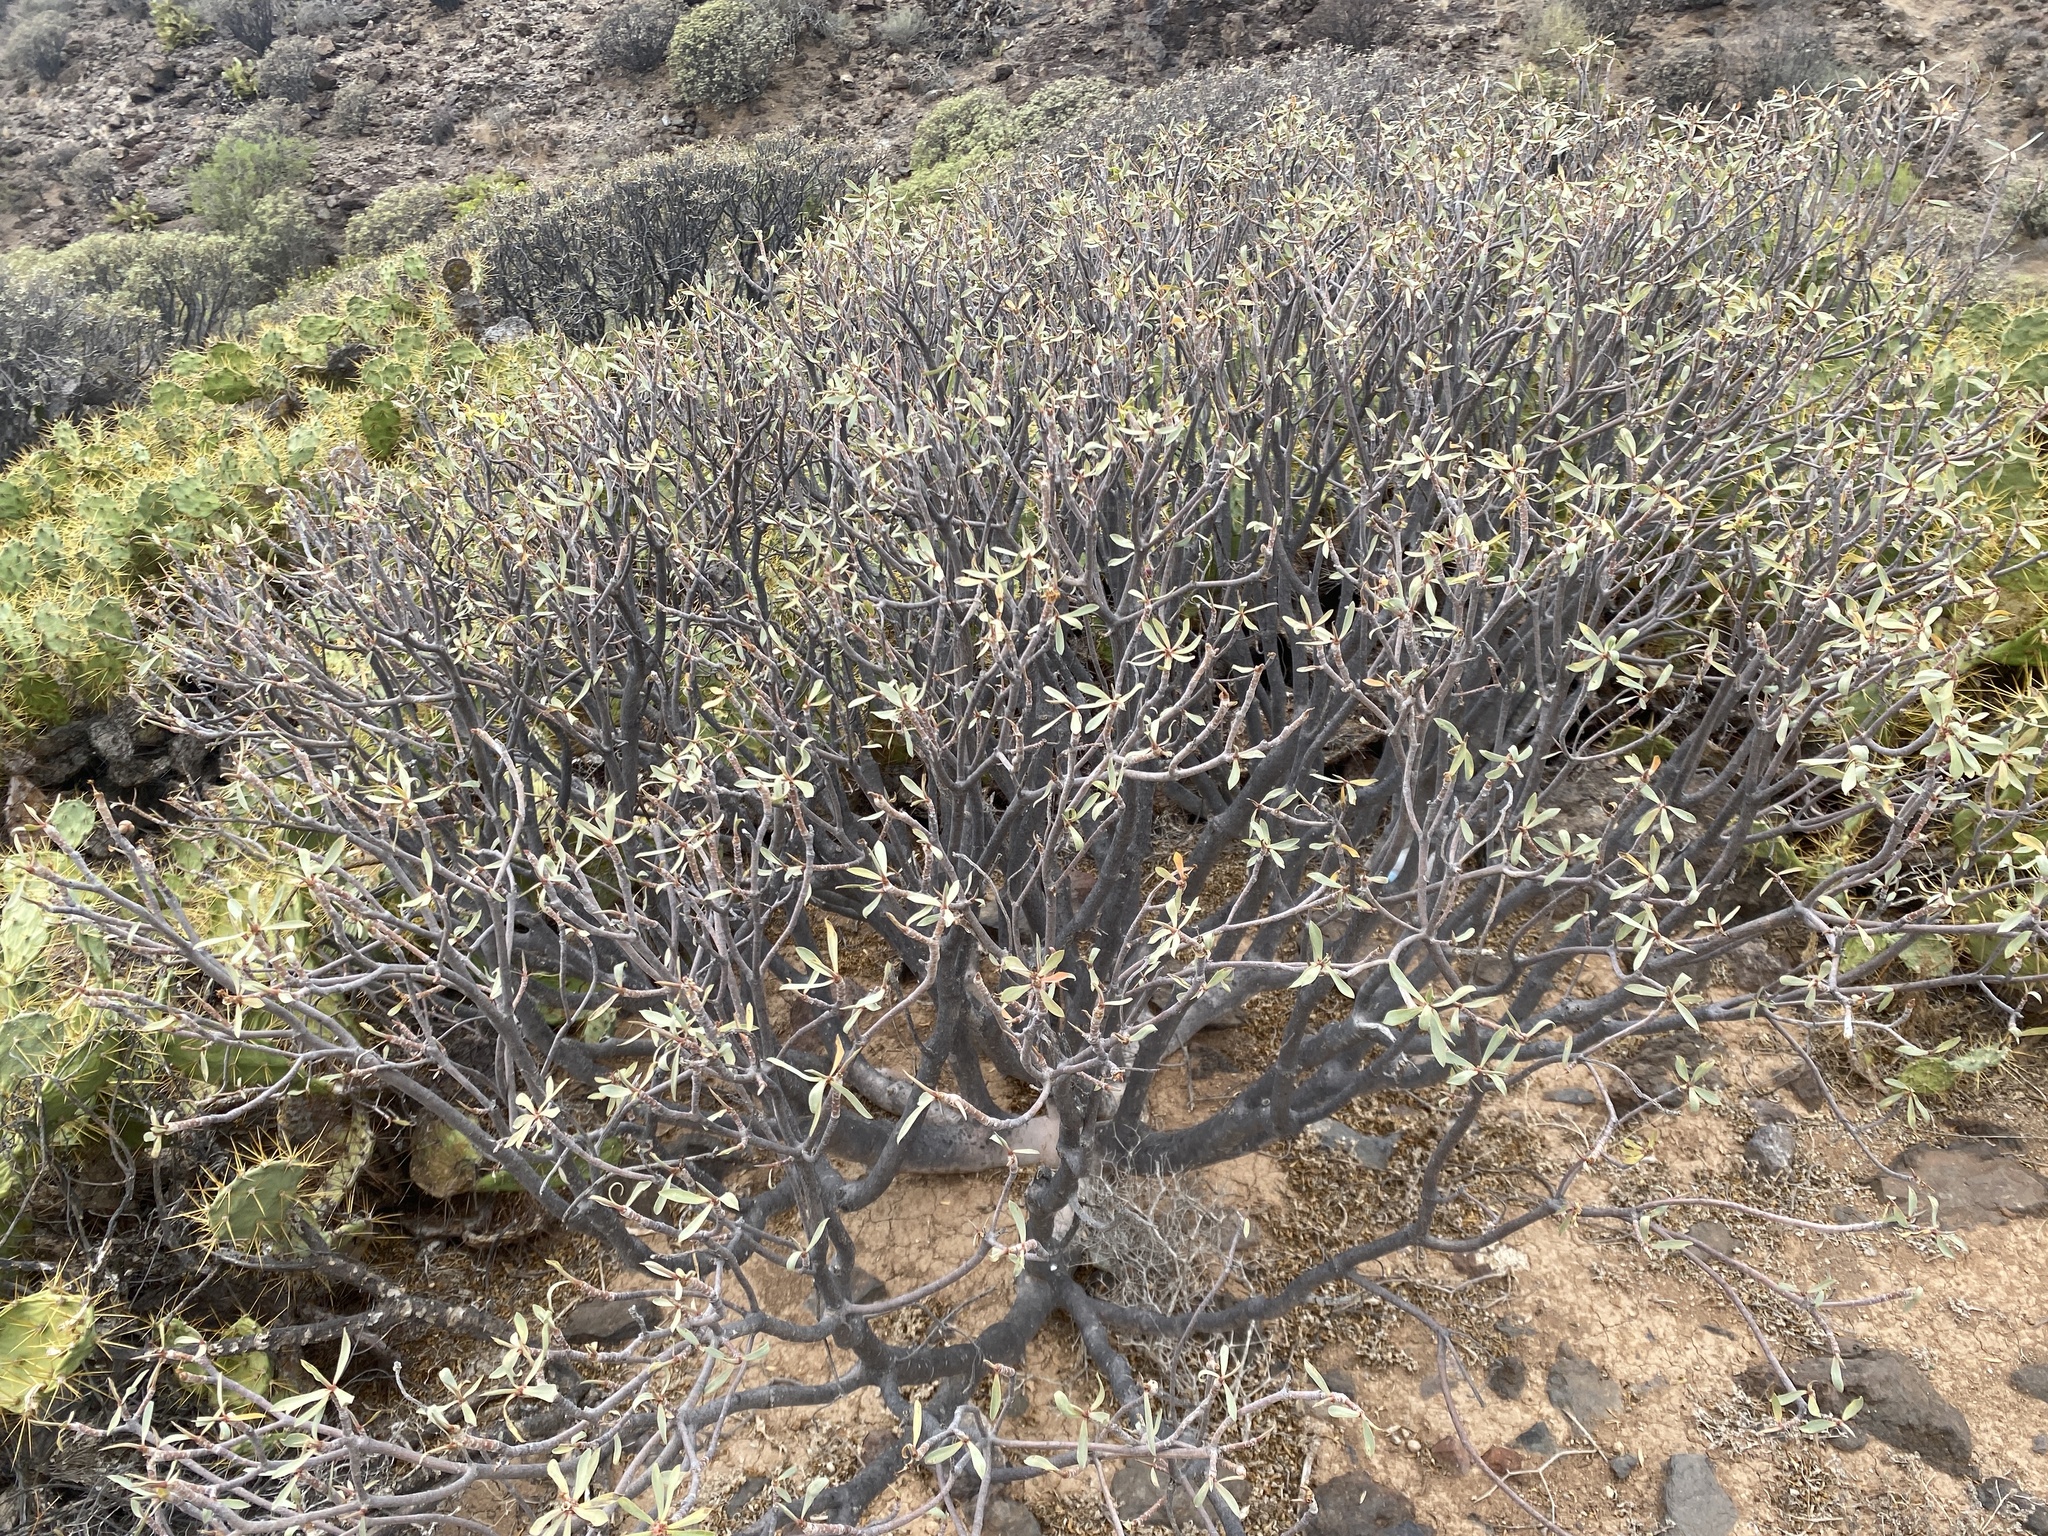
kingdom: Plantae
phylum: Tracheophyta
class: Magnoliopsida
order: Malpighiales
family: Euphorbiaceae
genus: Euphorbia
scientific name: Euphorbia balsamifera
